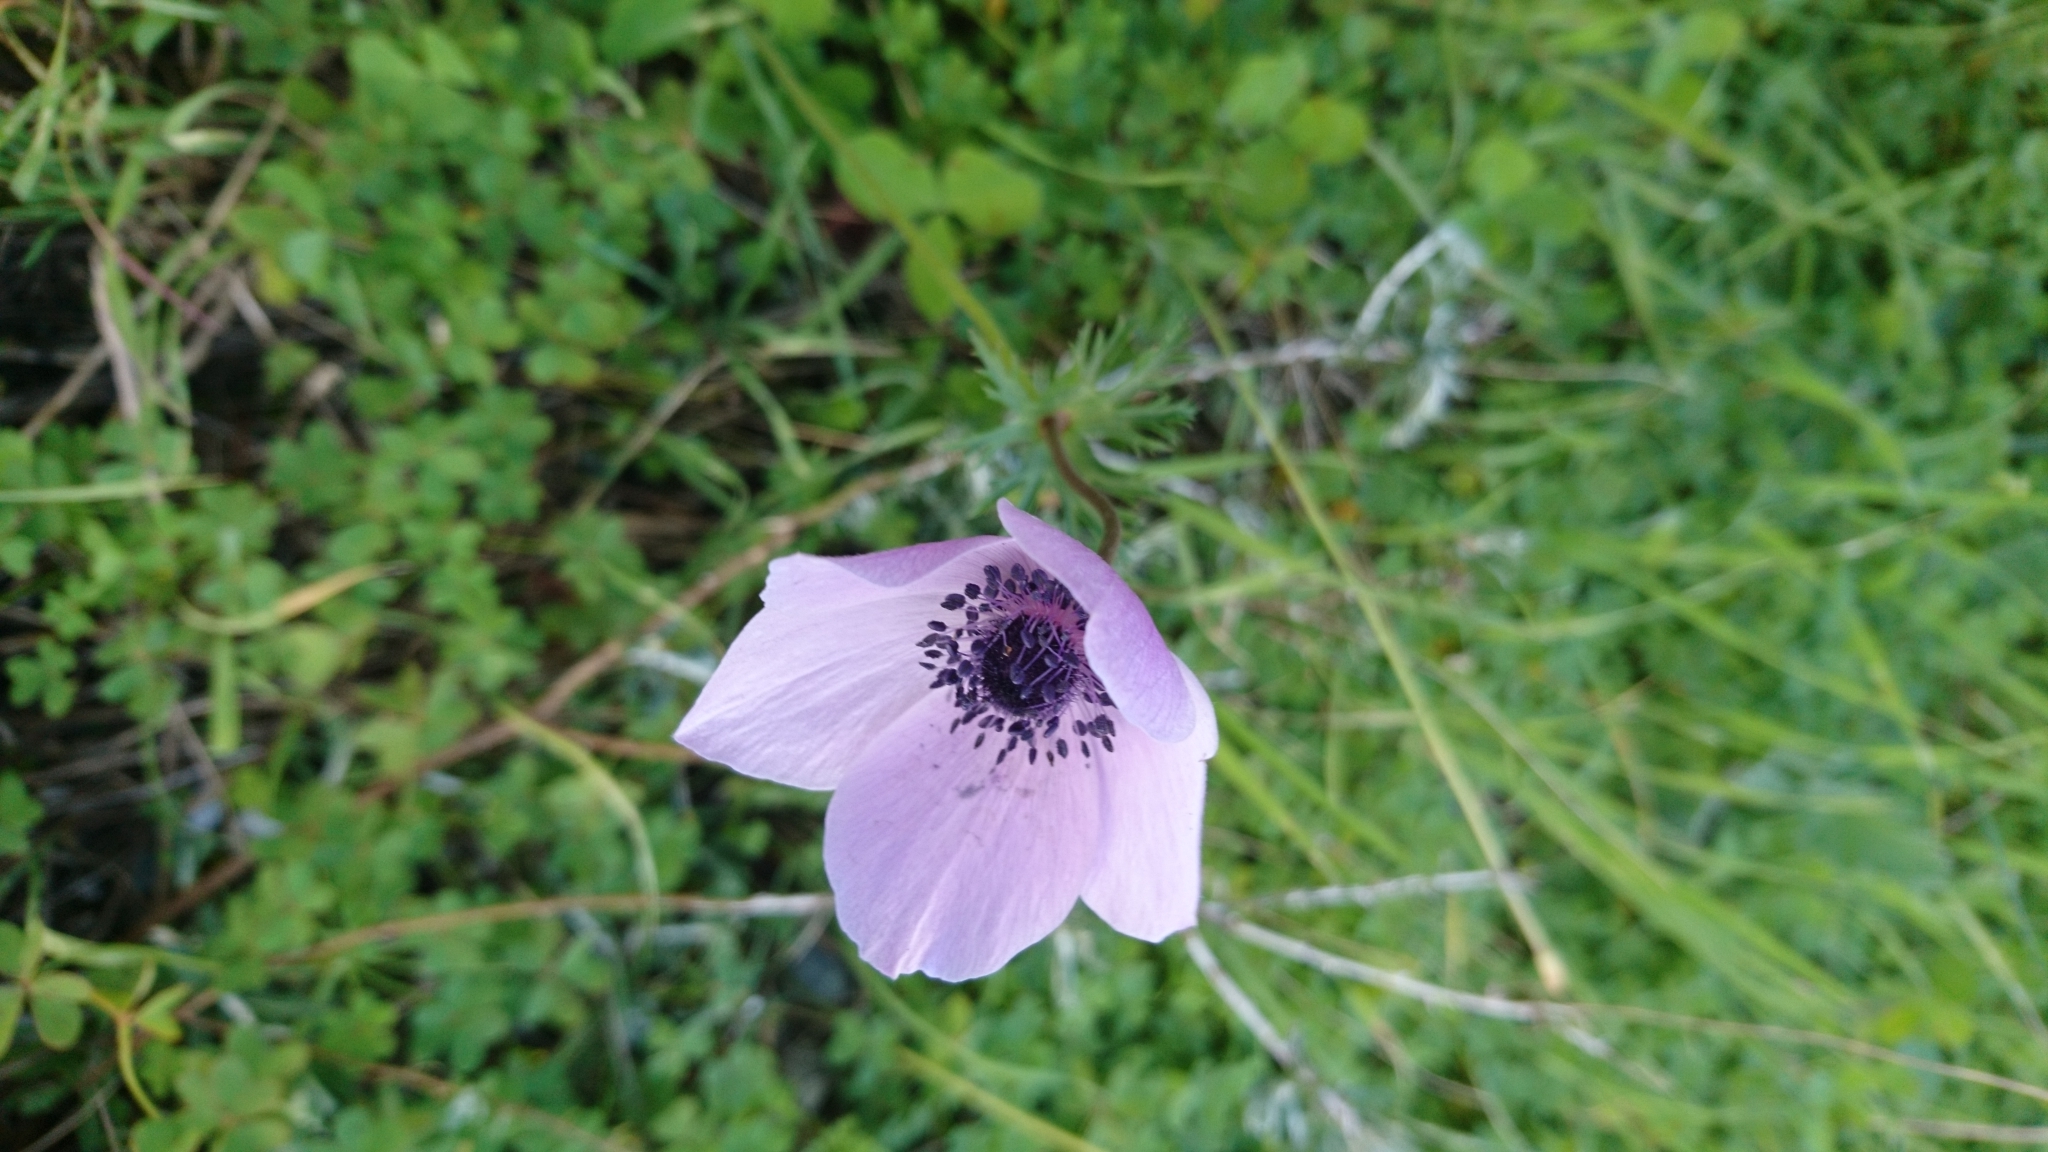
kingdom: Plantae
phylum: Tracheophyta
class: Magnoliopsida
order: Ranunculales
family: Ranunculaceae
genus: Anemone
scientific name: Anemone coronaria
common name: Poppy anemone
